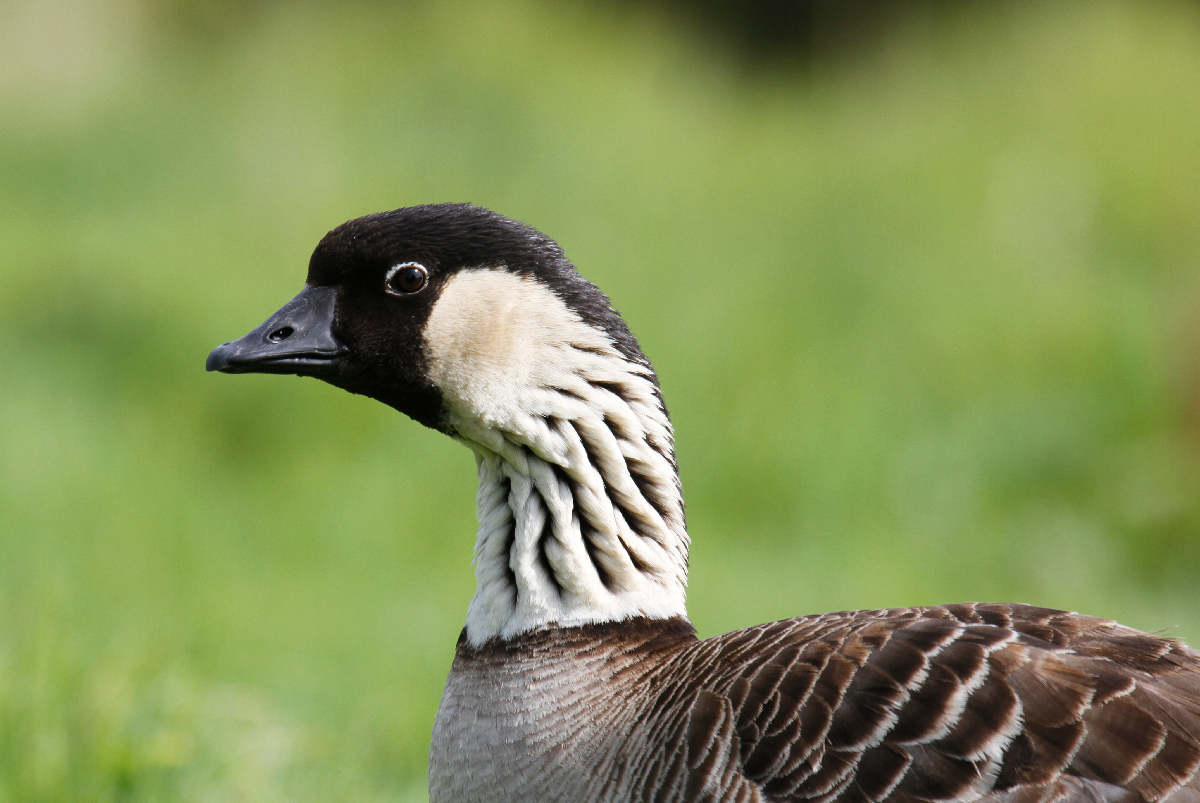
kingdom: Animalia
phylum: Chordata
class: Aves
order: Anseriformes
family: Anatidae
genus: Branta
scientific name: Branta sandvicensis
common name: Nene
